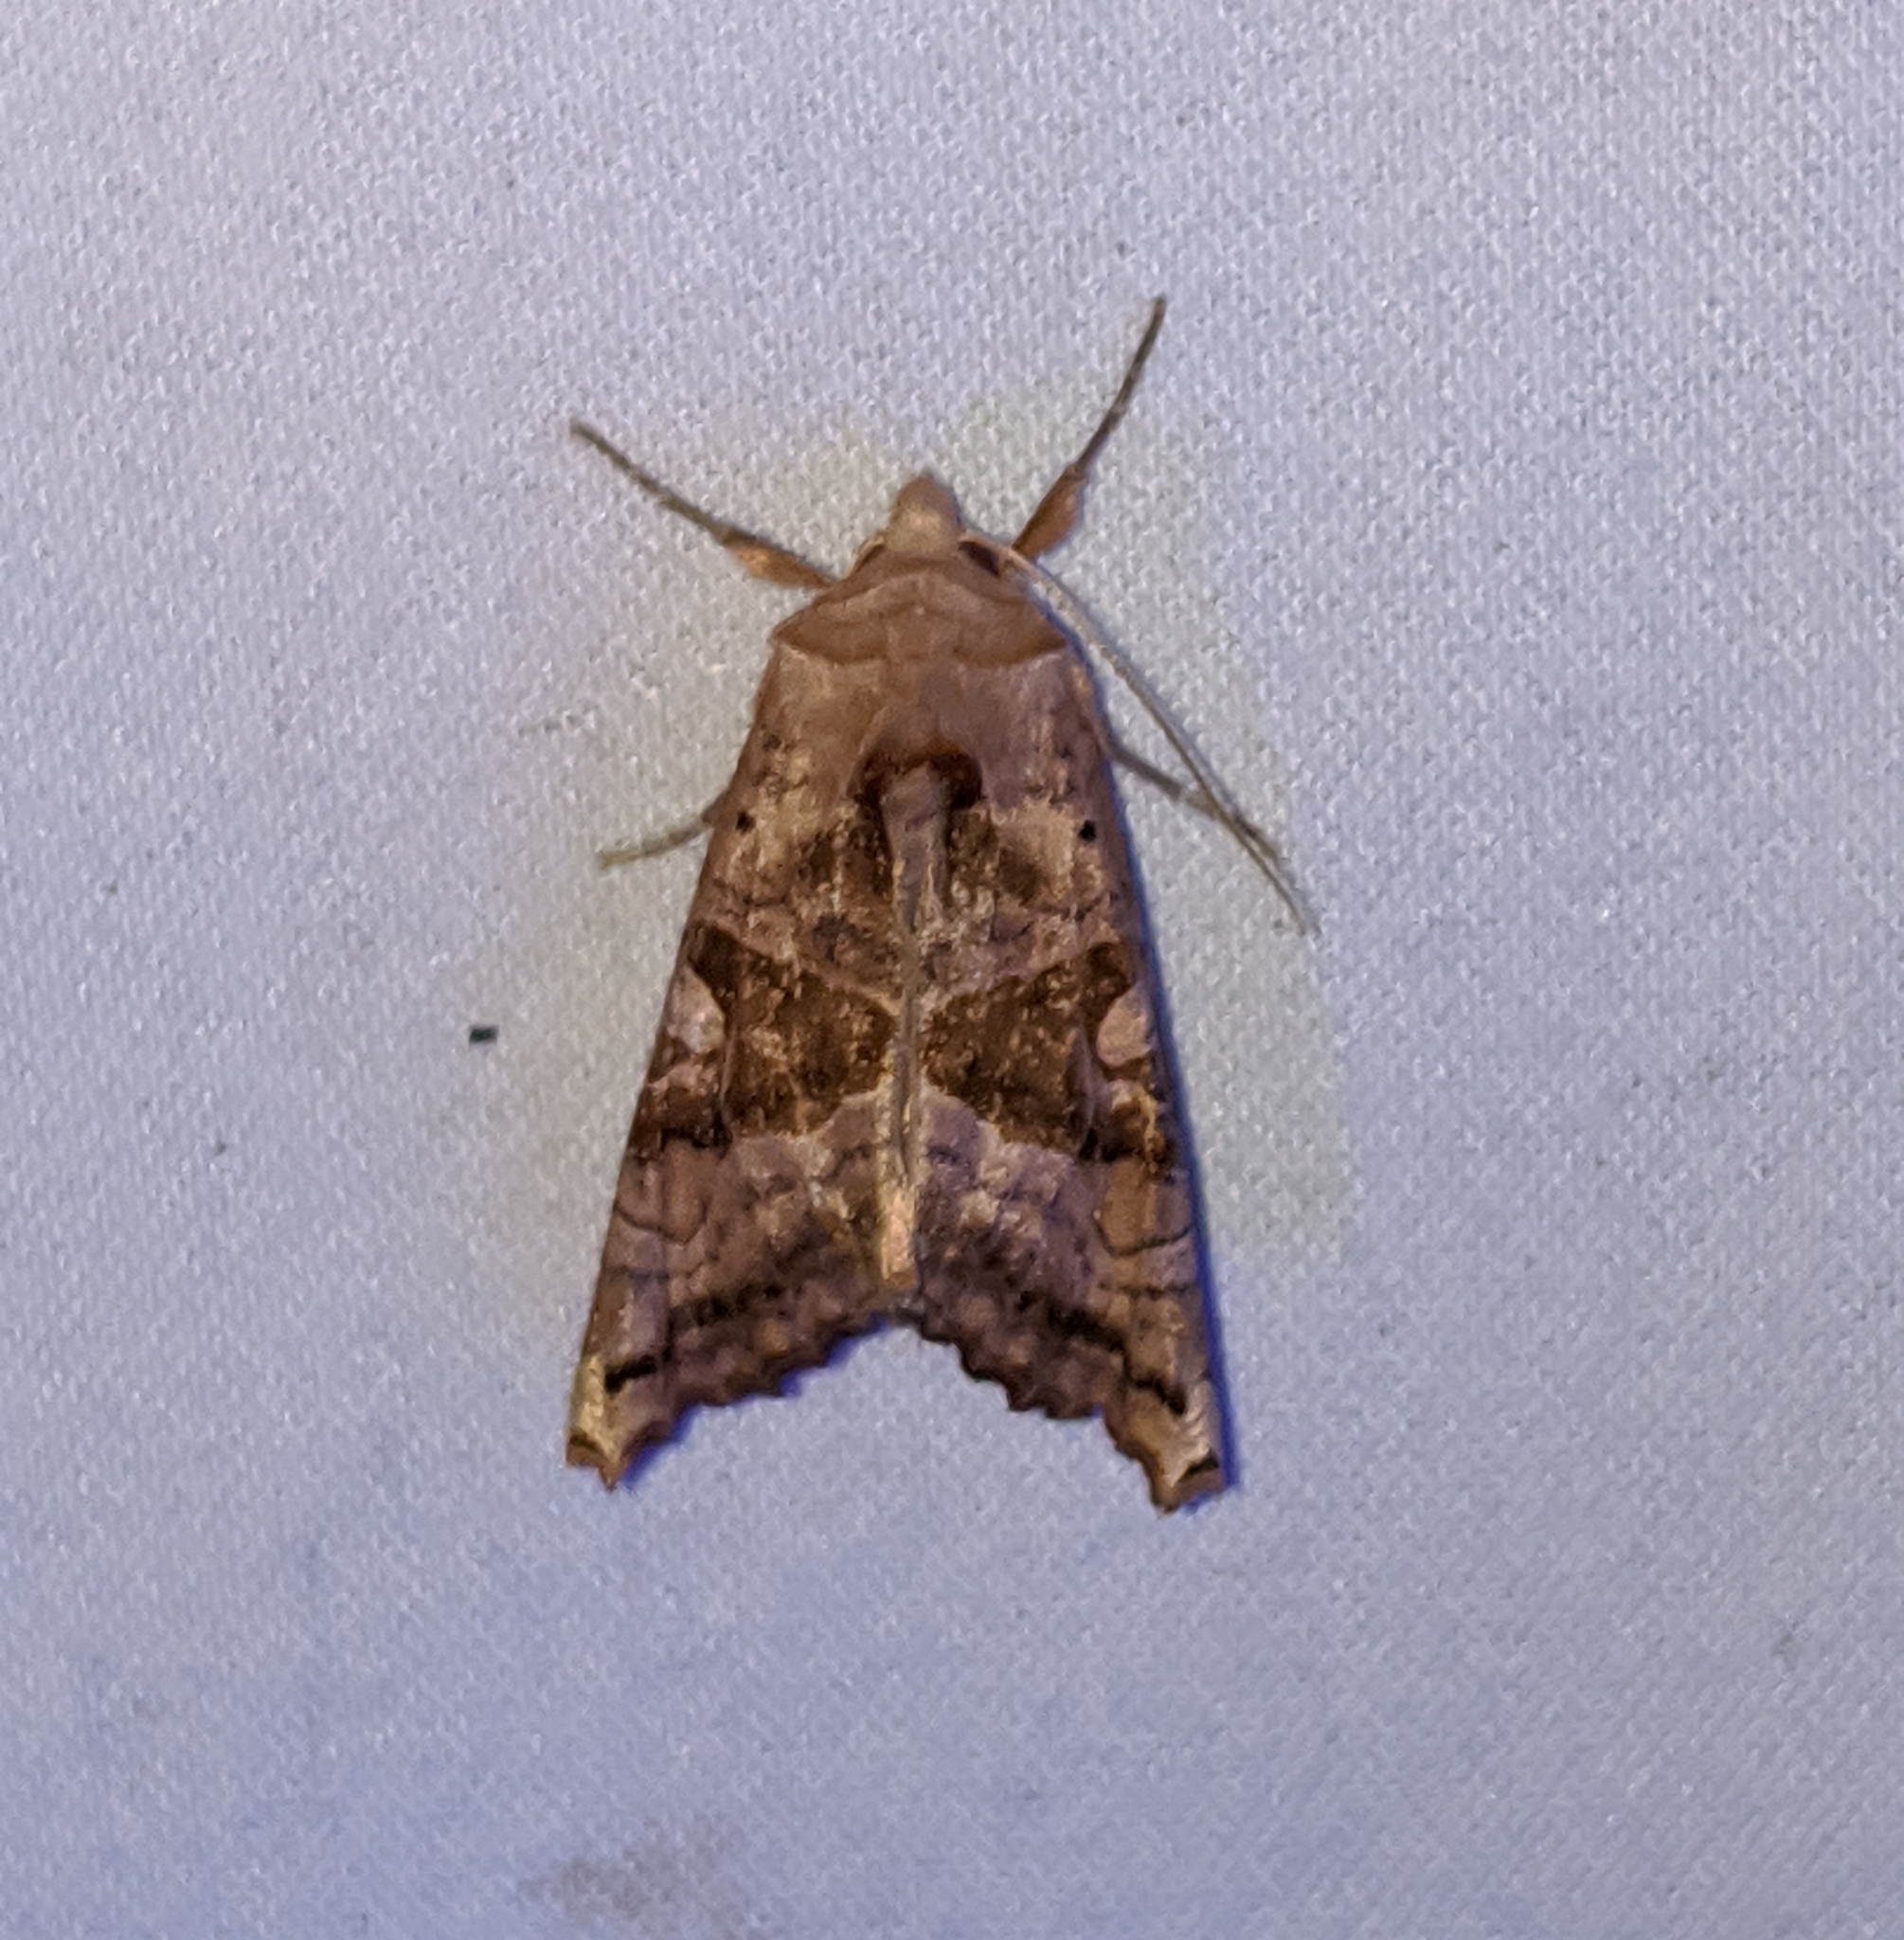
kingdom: Animalia
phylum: Arthropoda
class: Insecta
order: Lepidoptera
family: Noctuidae
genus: Phlogophora
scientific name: Phlogophora periculosa
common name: Brown angle shades
